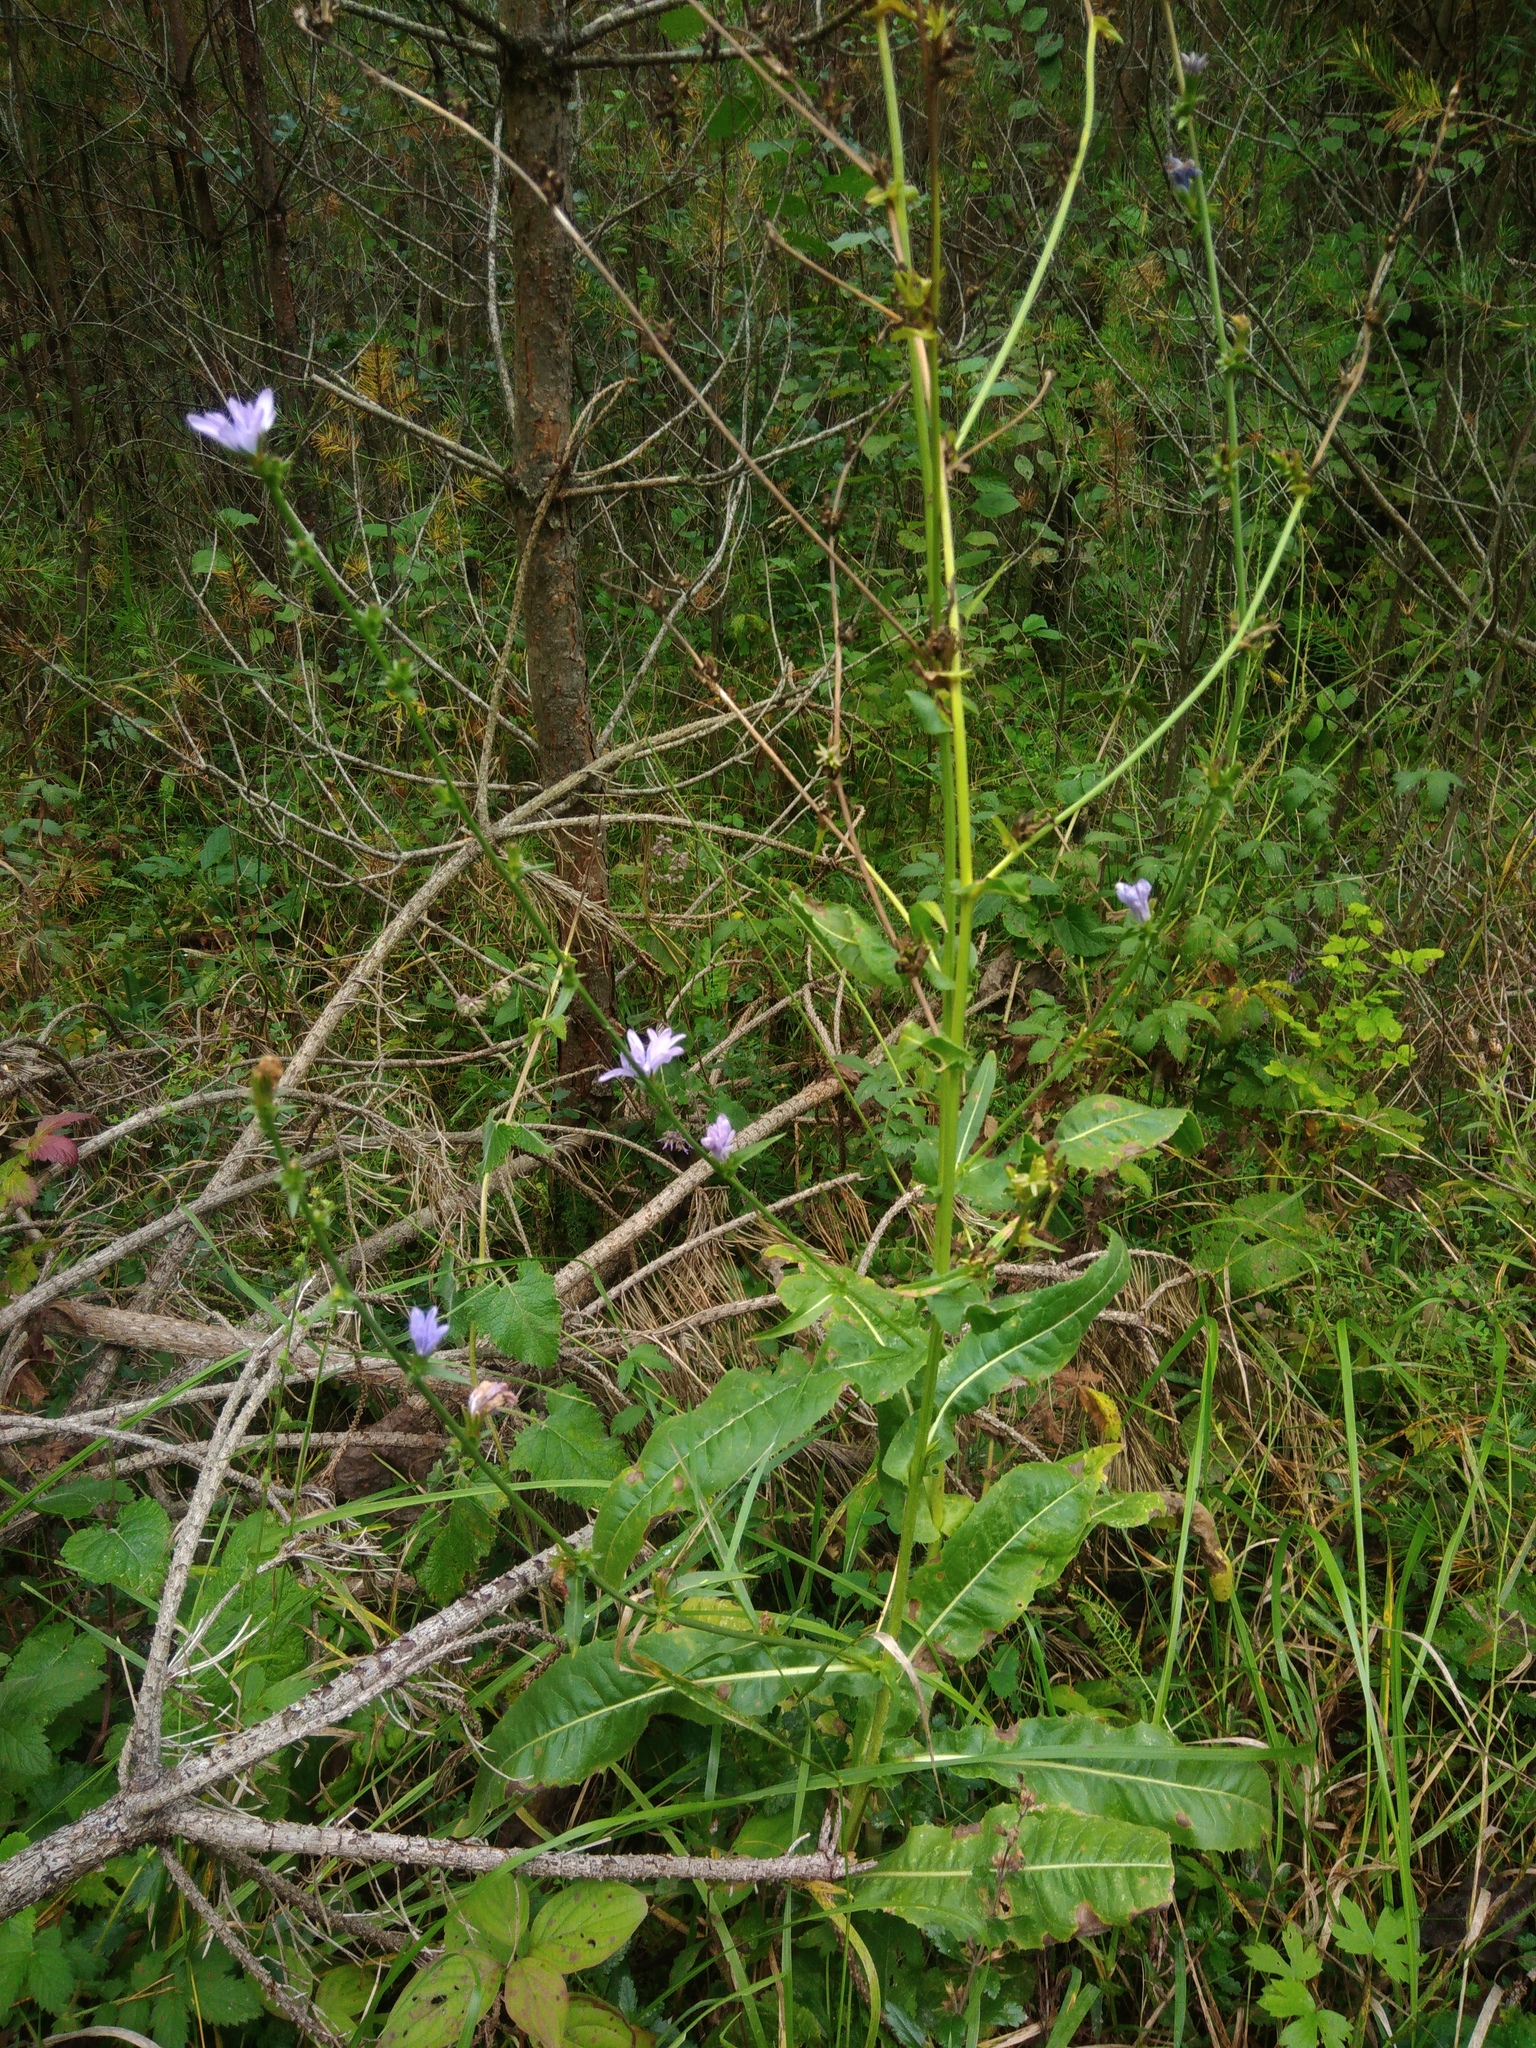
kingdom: Plantae
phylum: Tracheophyta
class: Magnoliopsida
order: Asterales
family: Asteraceae
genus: Cichorium
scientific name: Cichorium intybus
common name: Chicory
